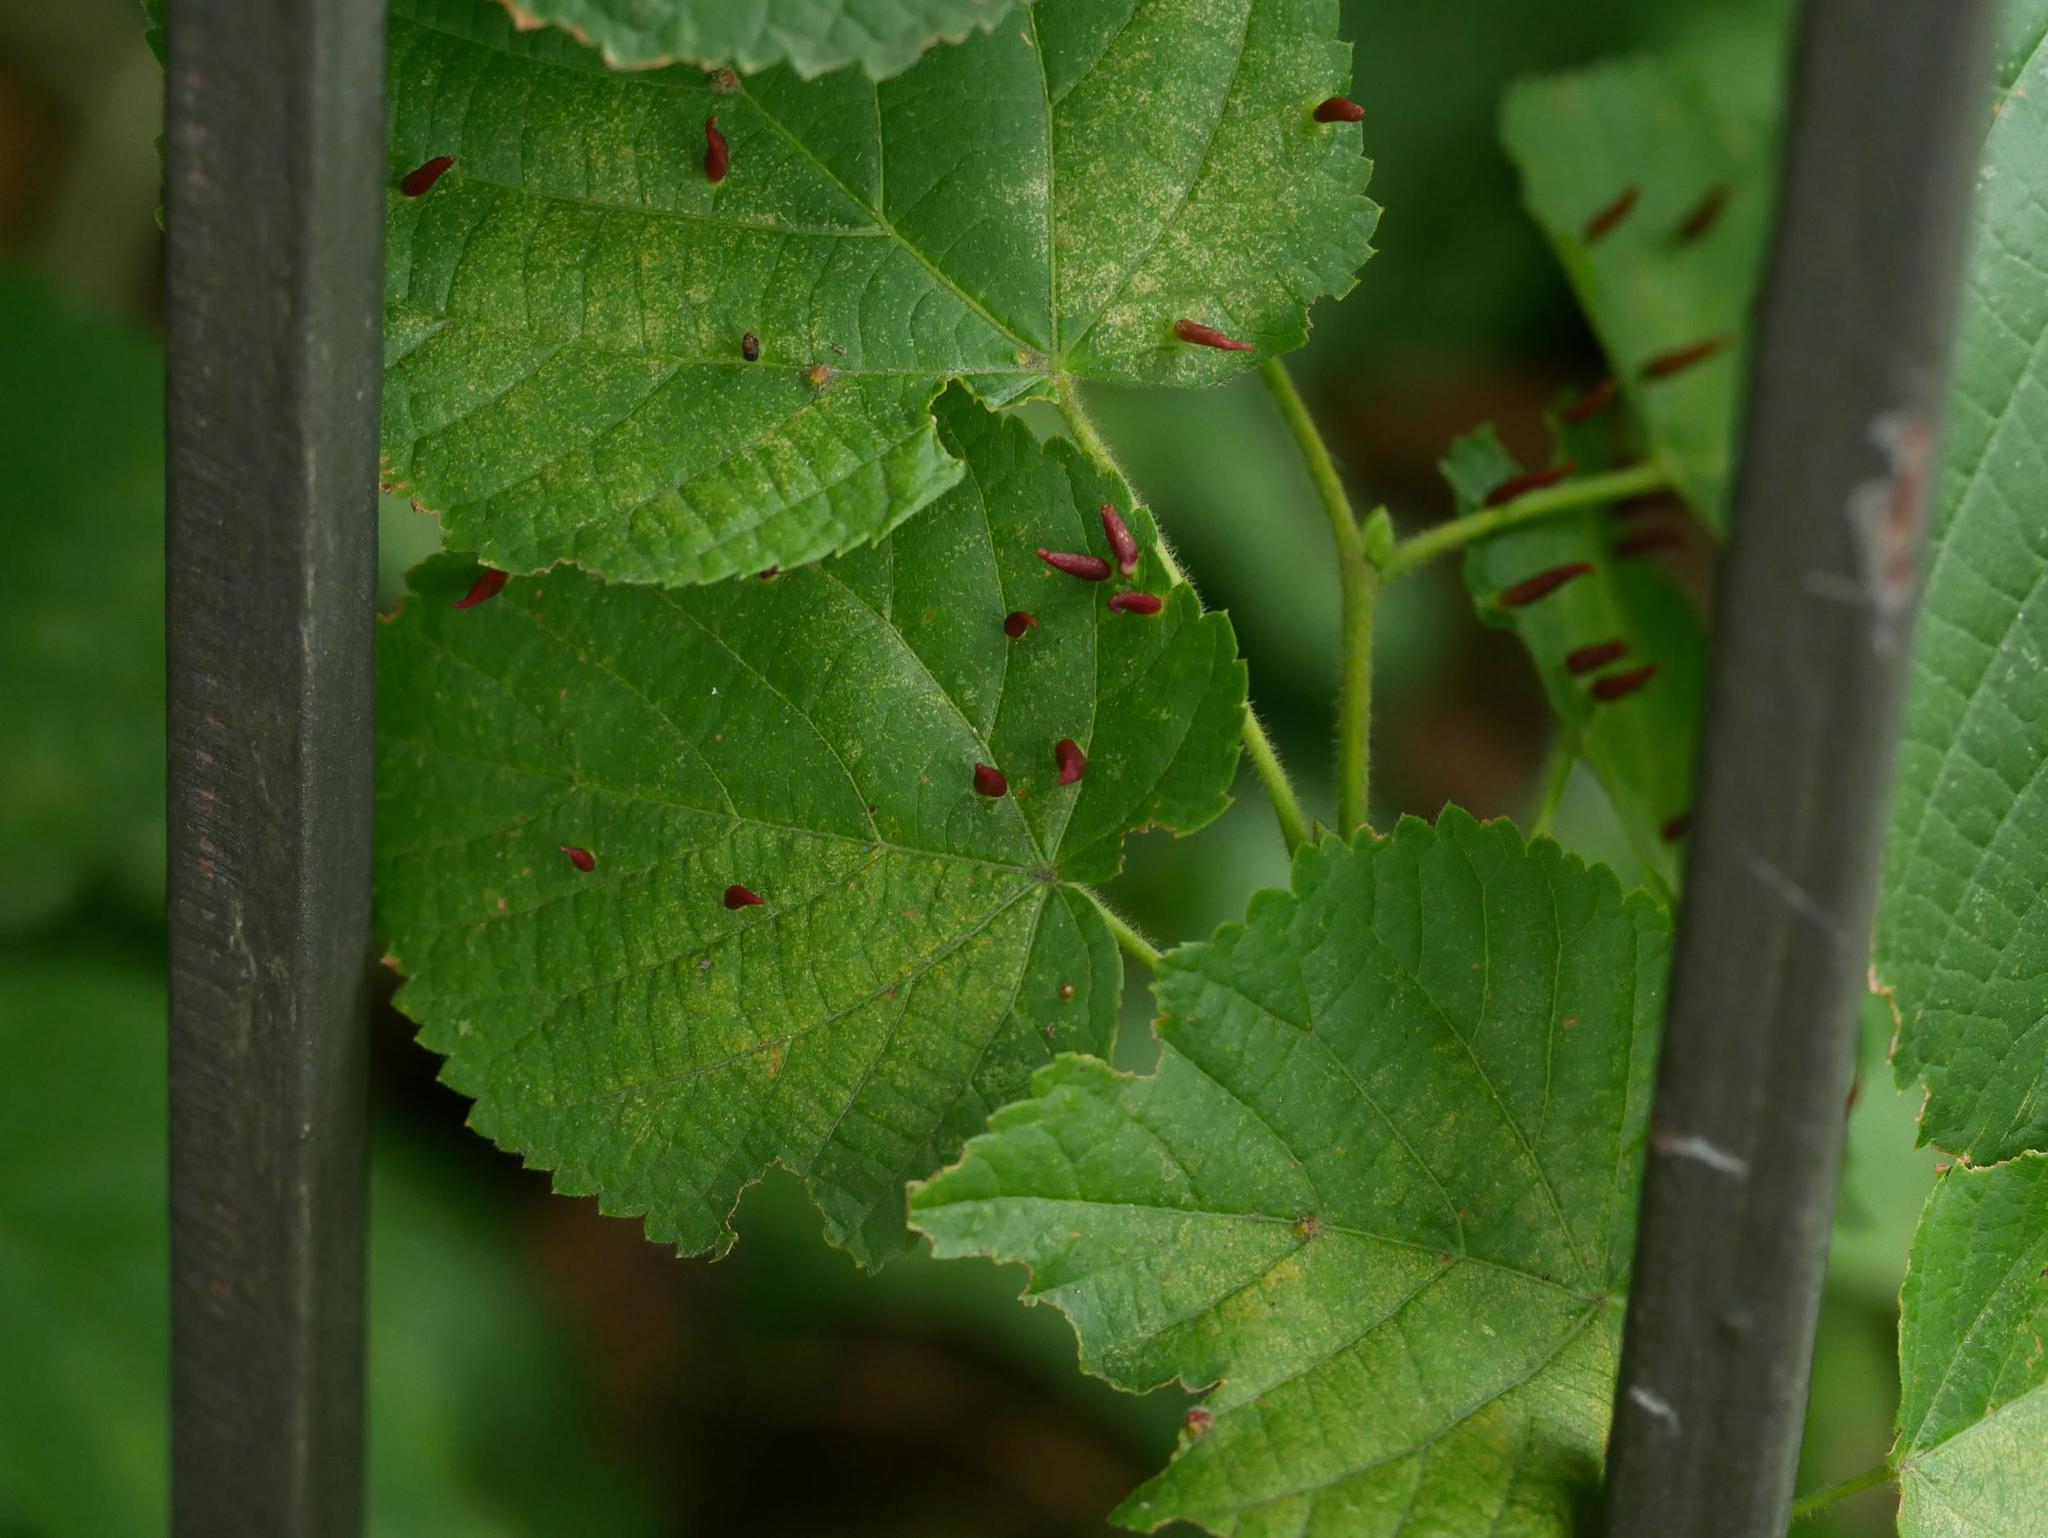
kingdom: Animalia
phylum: Arthropoda
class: Arachnida
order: Trombidiformes
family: Eriophyidae
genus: Eriophyes
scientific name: Eriophyes tiliae
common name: Red nail gall mite
